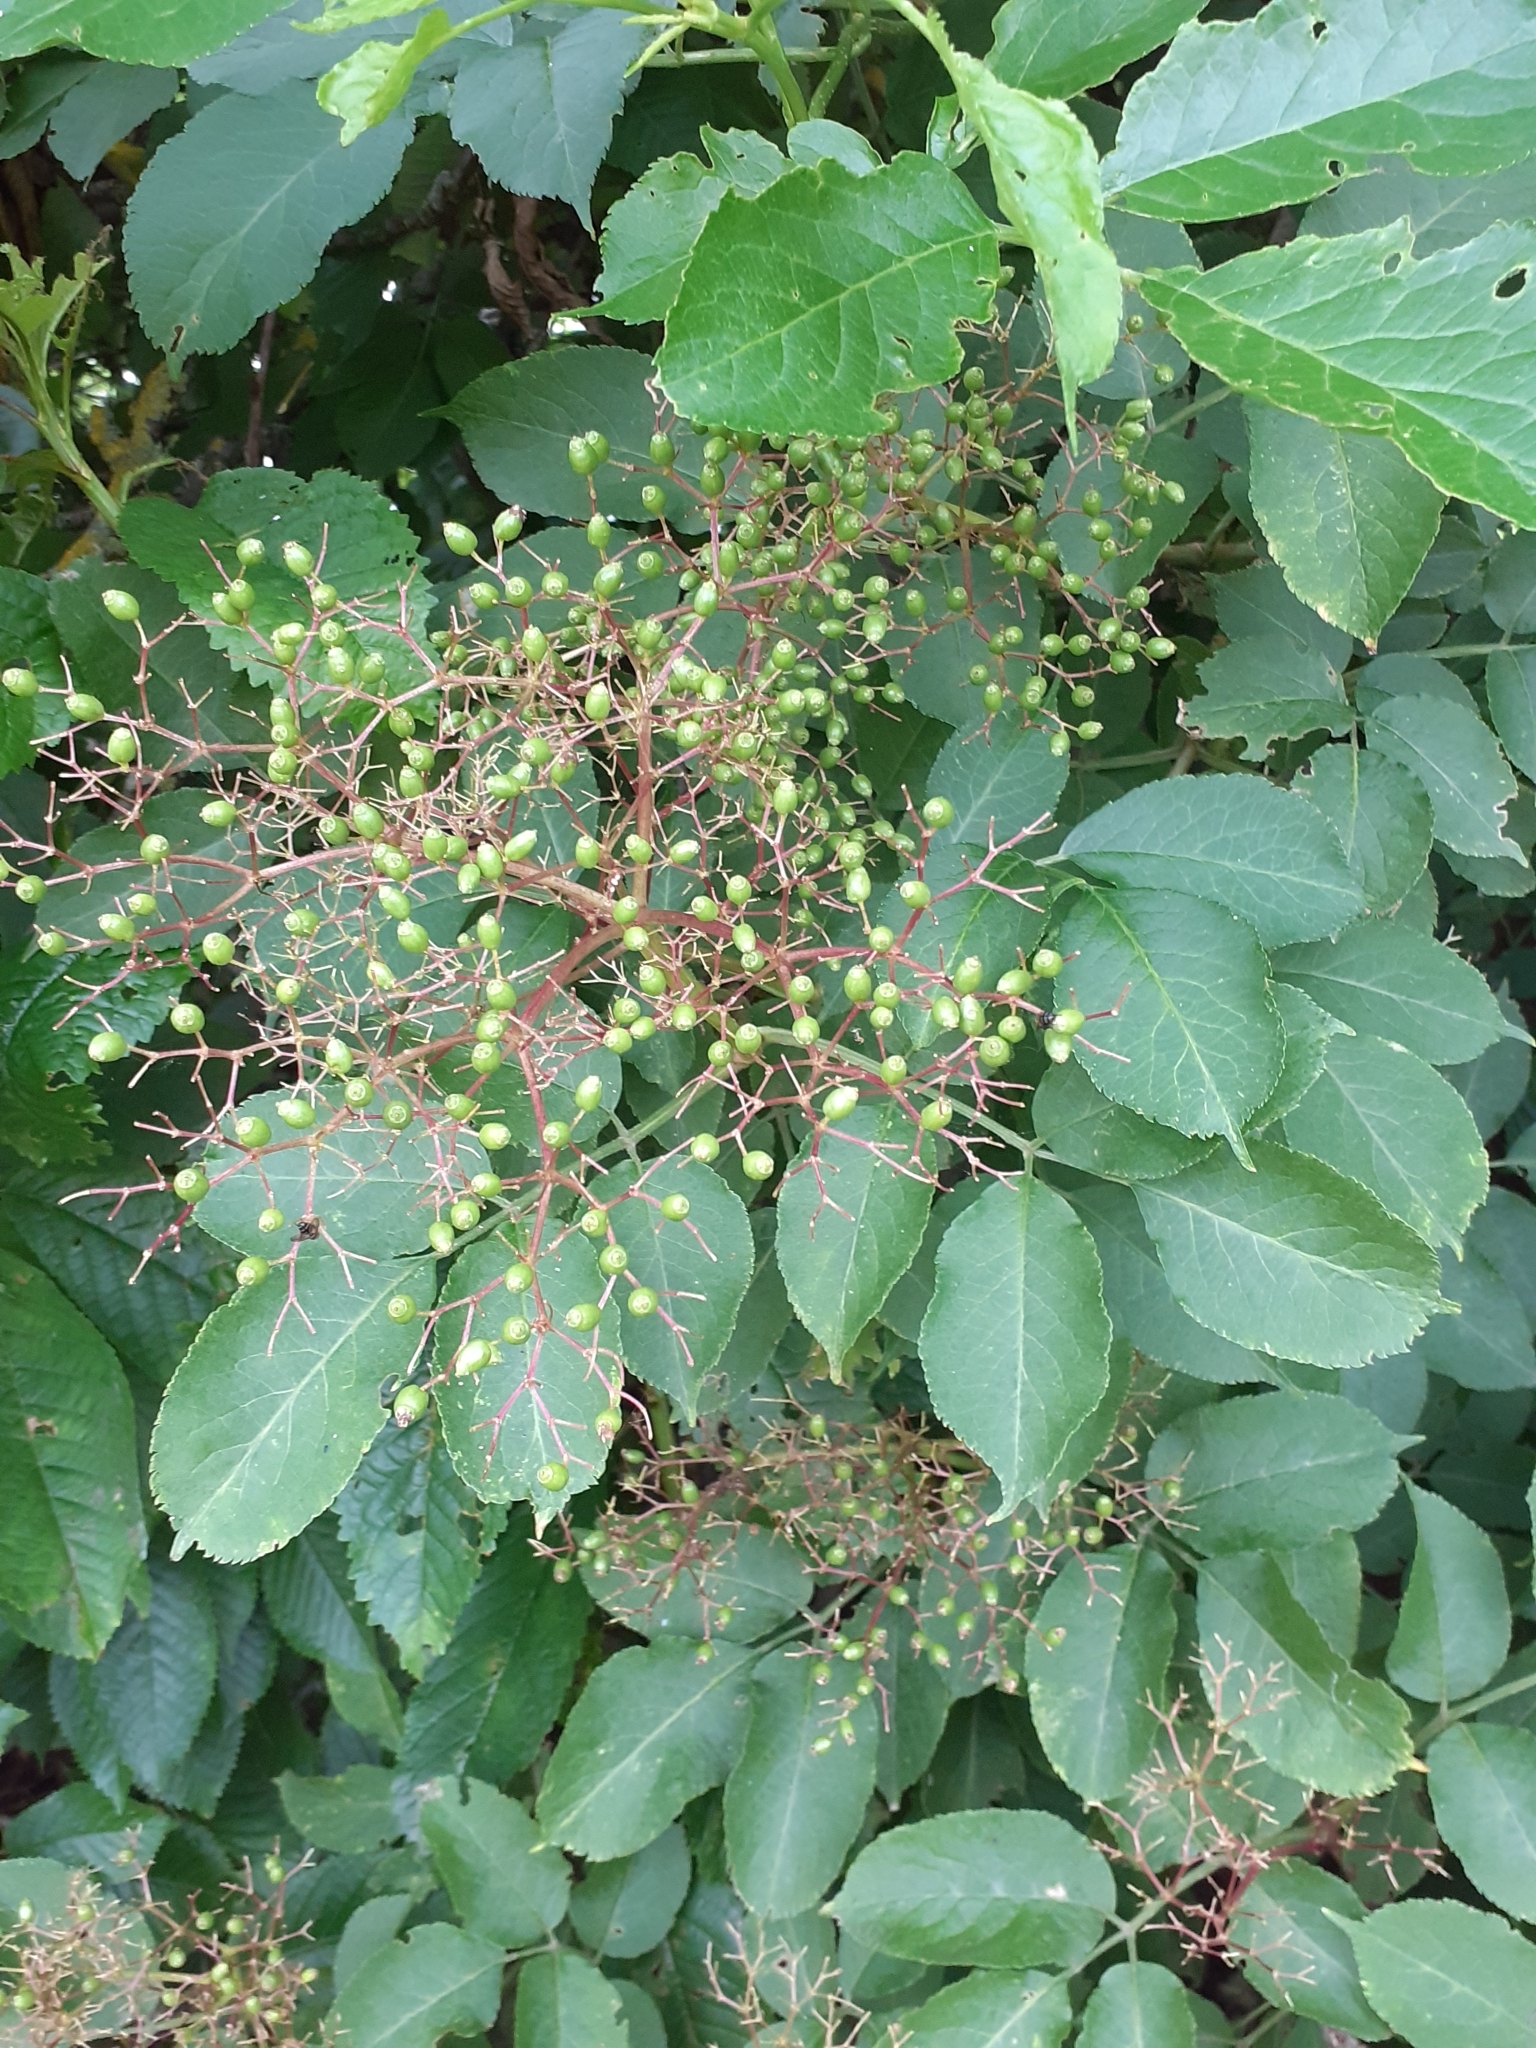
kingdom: Plantae
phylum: Tracheophyta
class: Magnoliopsida
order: Dipsacales
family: Viburnaceae
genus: Sambucus
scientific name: Sambucus nigra
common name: Elder
